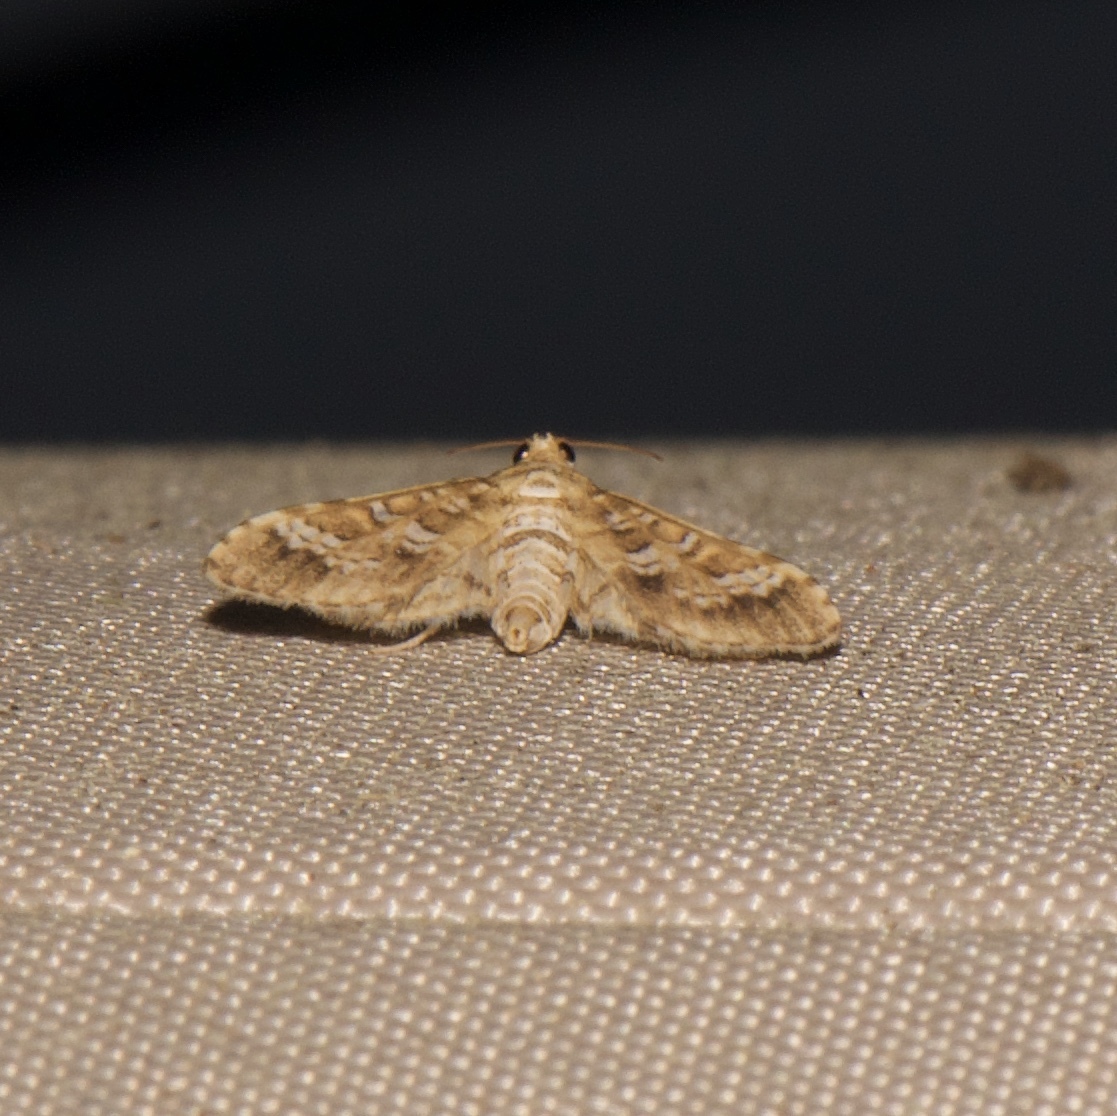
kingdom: Animalia
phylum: Arthropoda
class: Insecta
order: Lepidoptera
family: Crambidae
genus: Samea
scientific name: Samea multiplicalis
